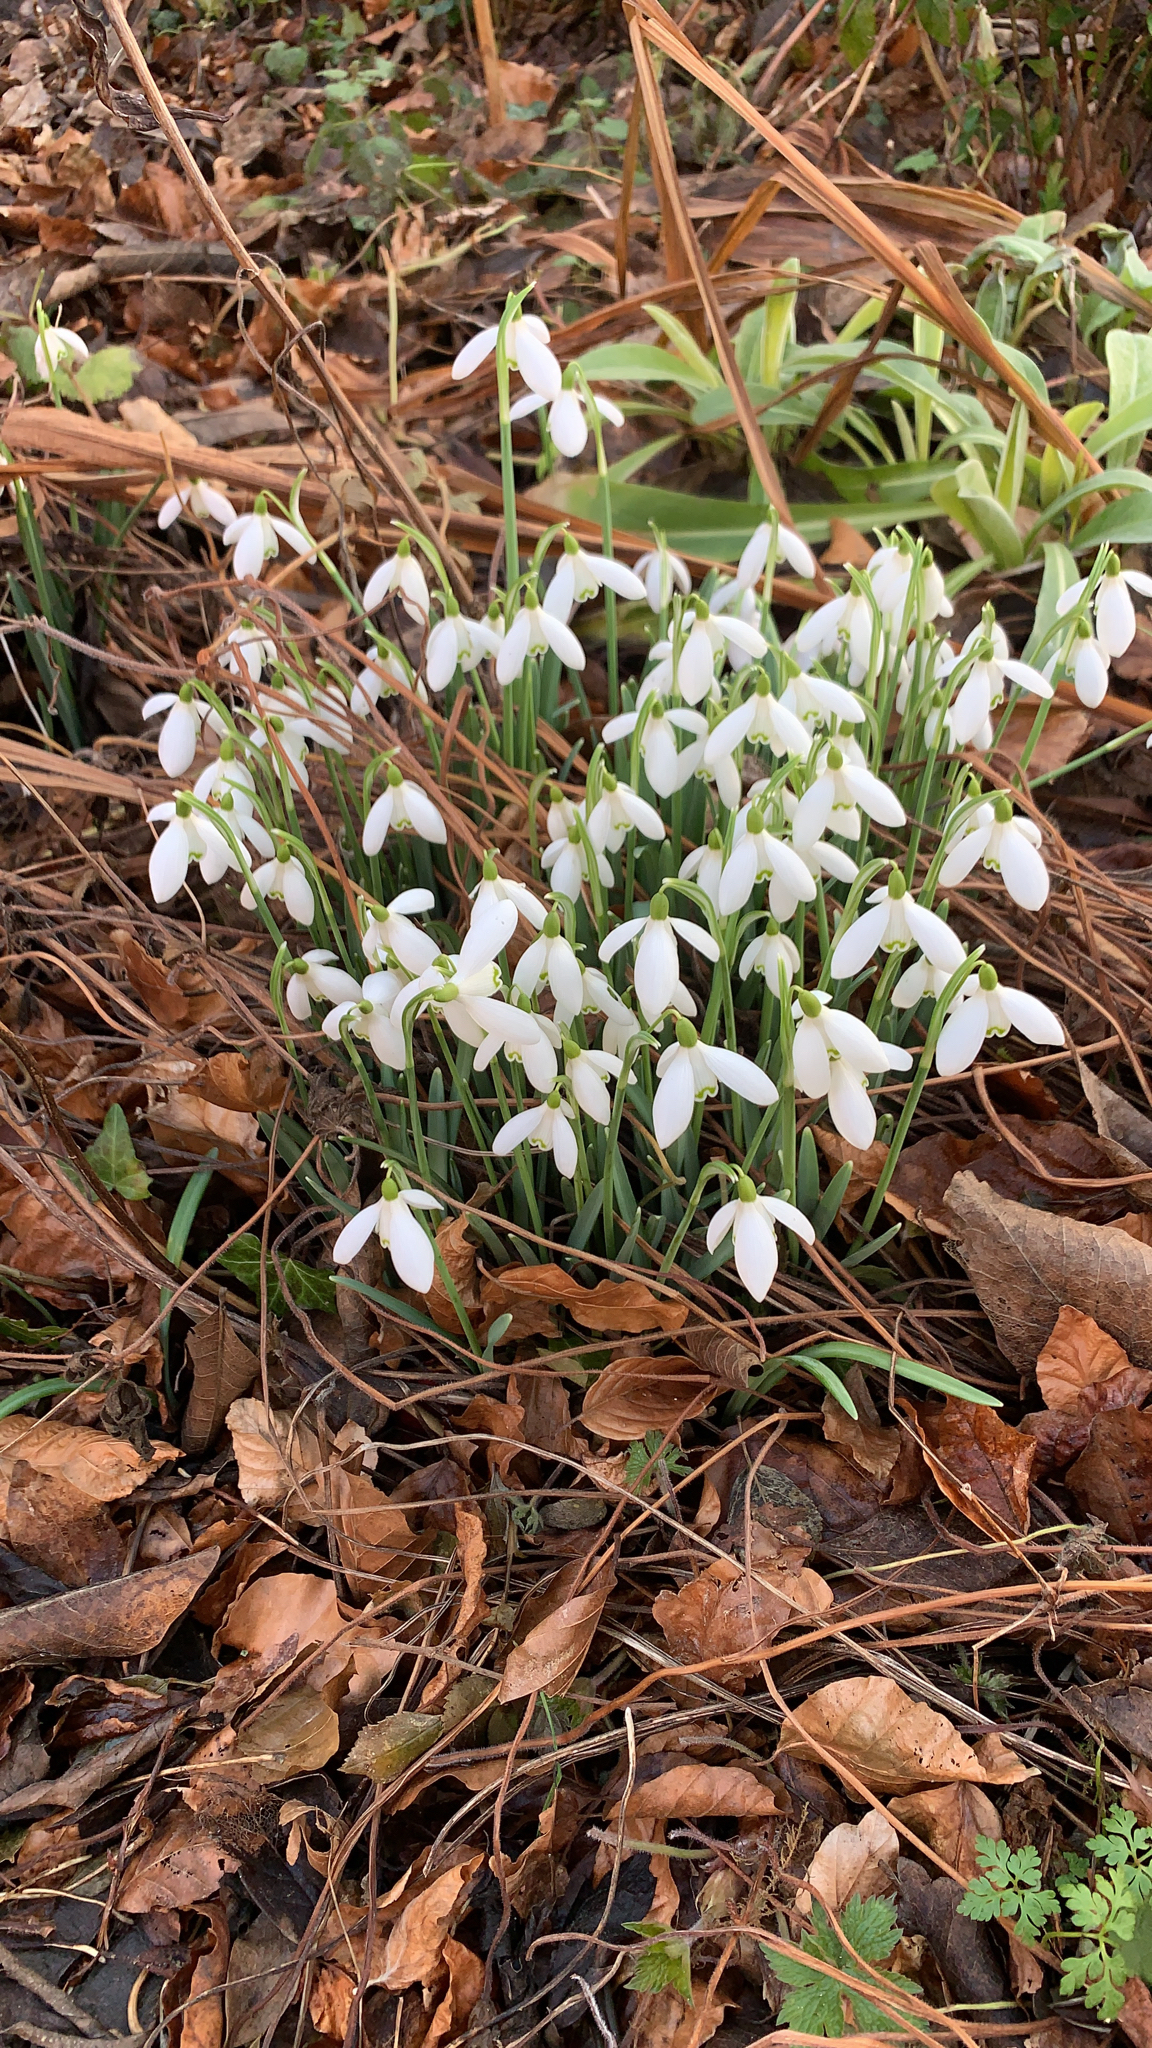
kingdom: Plantae
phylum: Tracheophyta
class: Liliopsida
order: Asparagales
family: Amaryllidaceae
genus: Galanthus
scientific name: Galanthus nivalis
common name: Snowdrop
